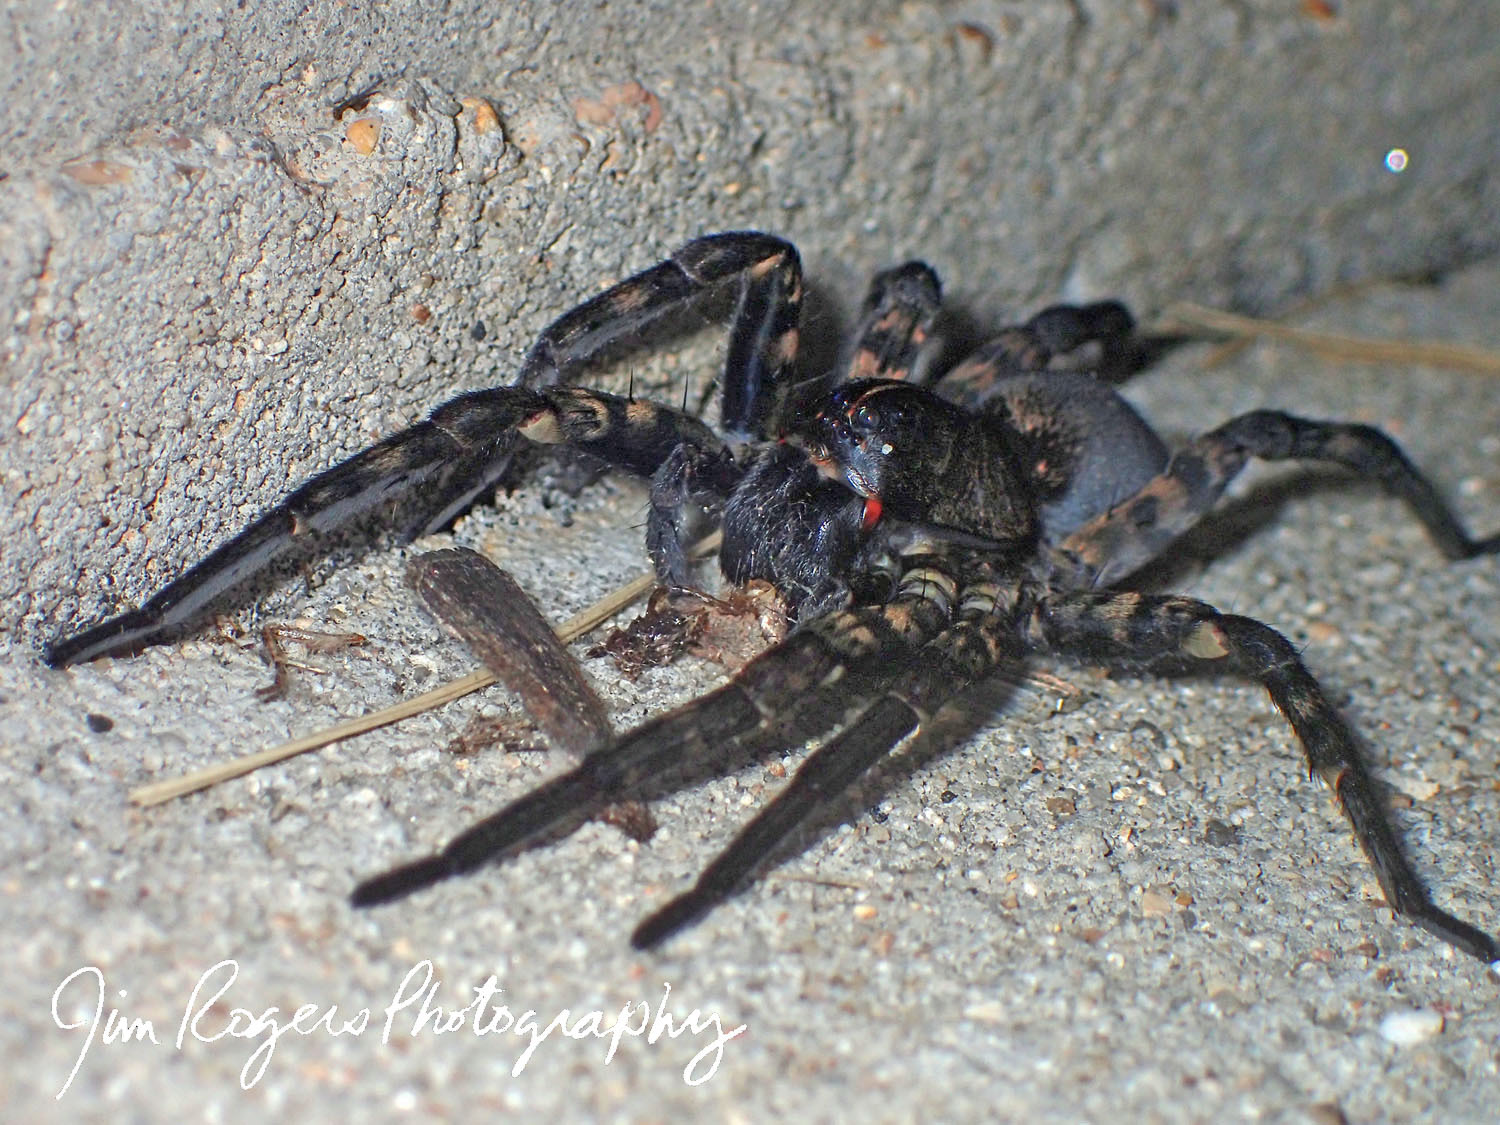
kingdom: Animalia
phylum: Arthropoda
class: Arachnida
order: Araneae
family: Lycosidae
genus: Tigrosa
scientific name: Tigrosa aspersa
